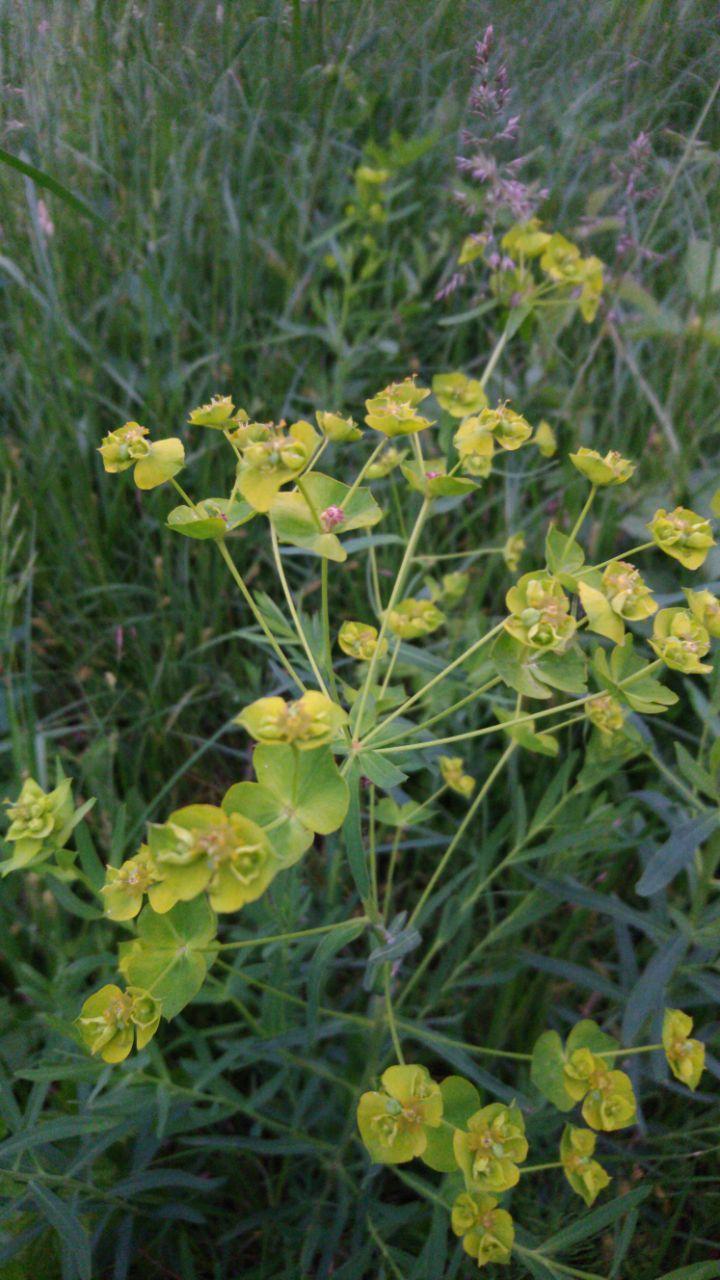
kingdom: Plantae
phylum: Tracheophyta
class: Magnoliopsida
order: Malpighiales
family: Euphorbiaceae
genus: Euphorbia
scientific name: Euphorbia virgata
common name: Leafy spurge
